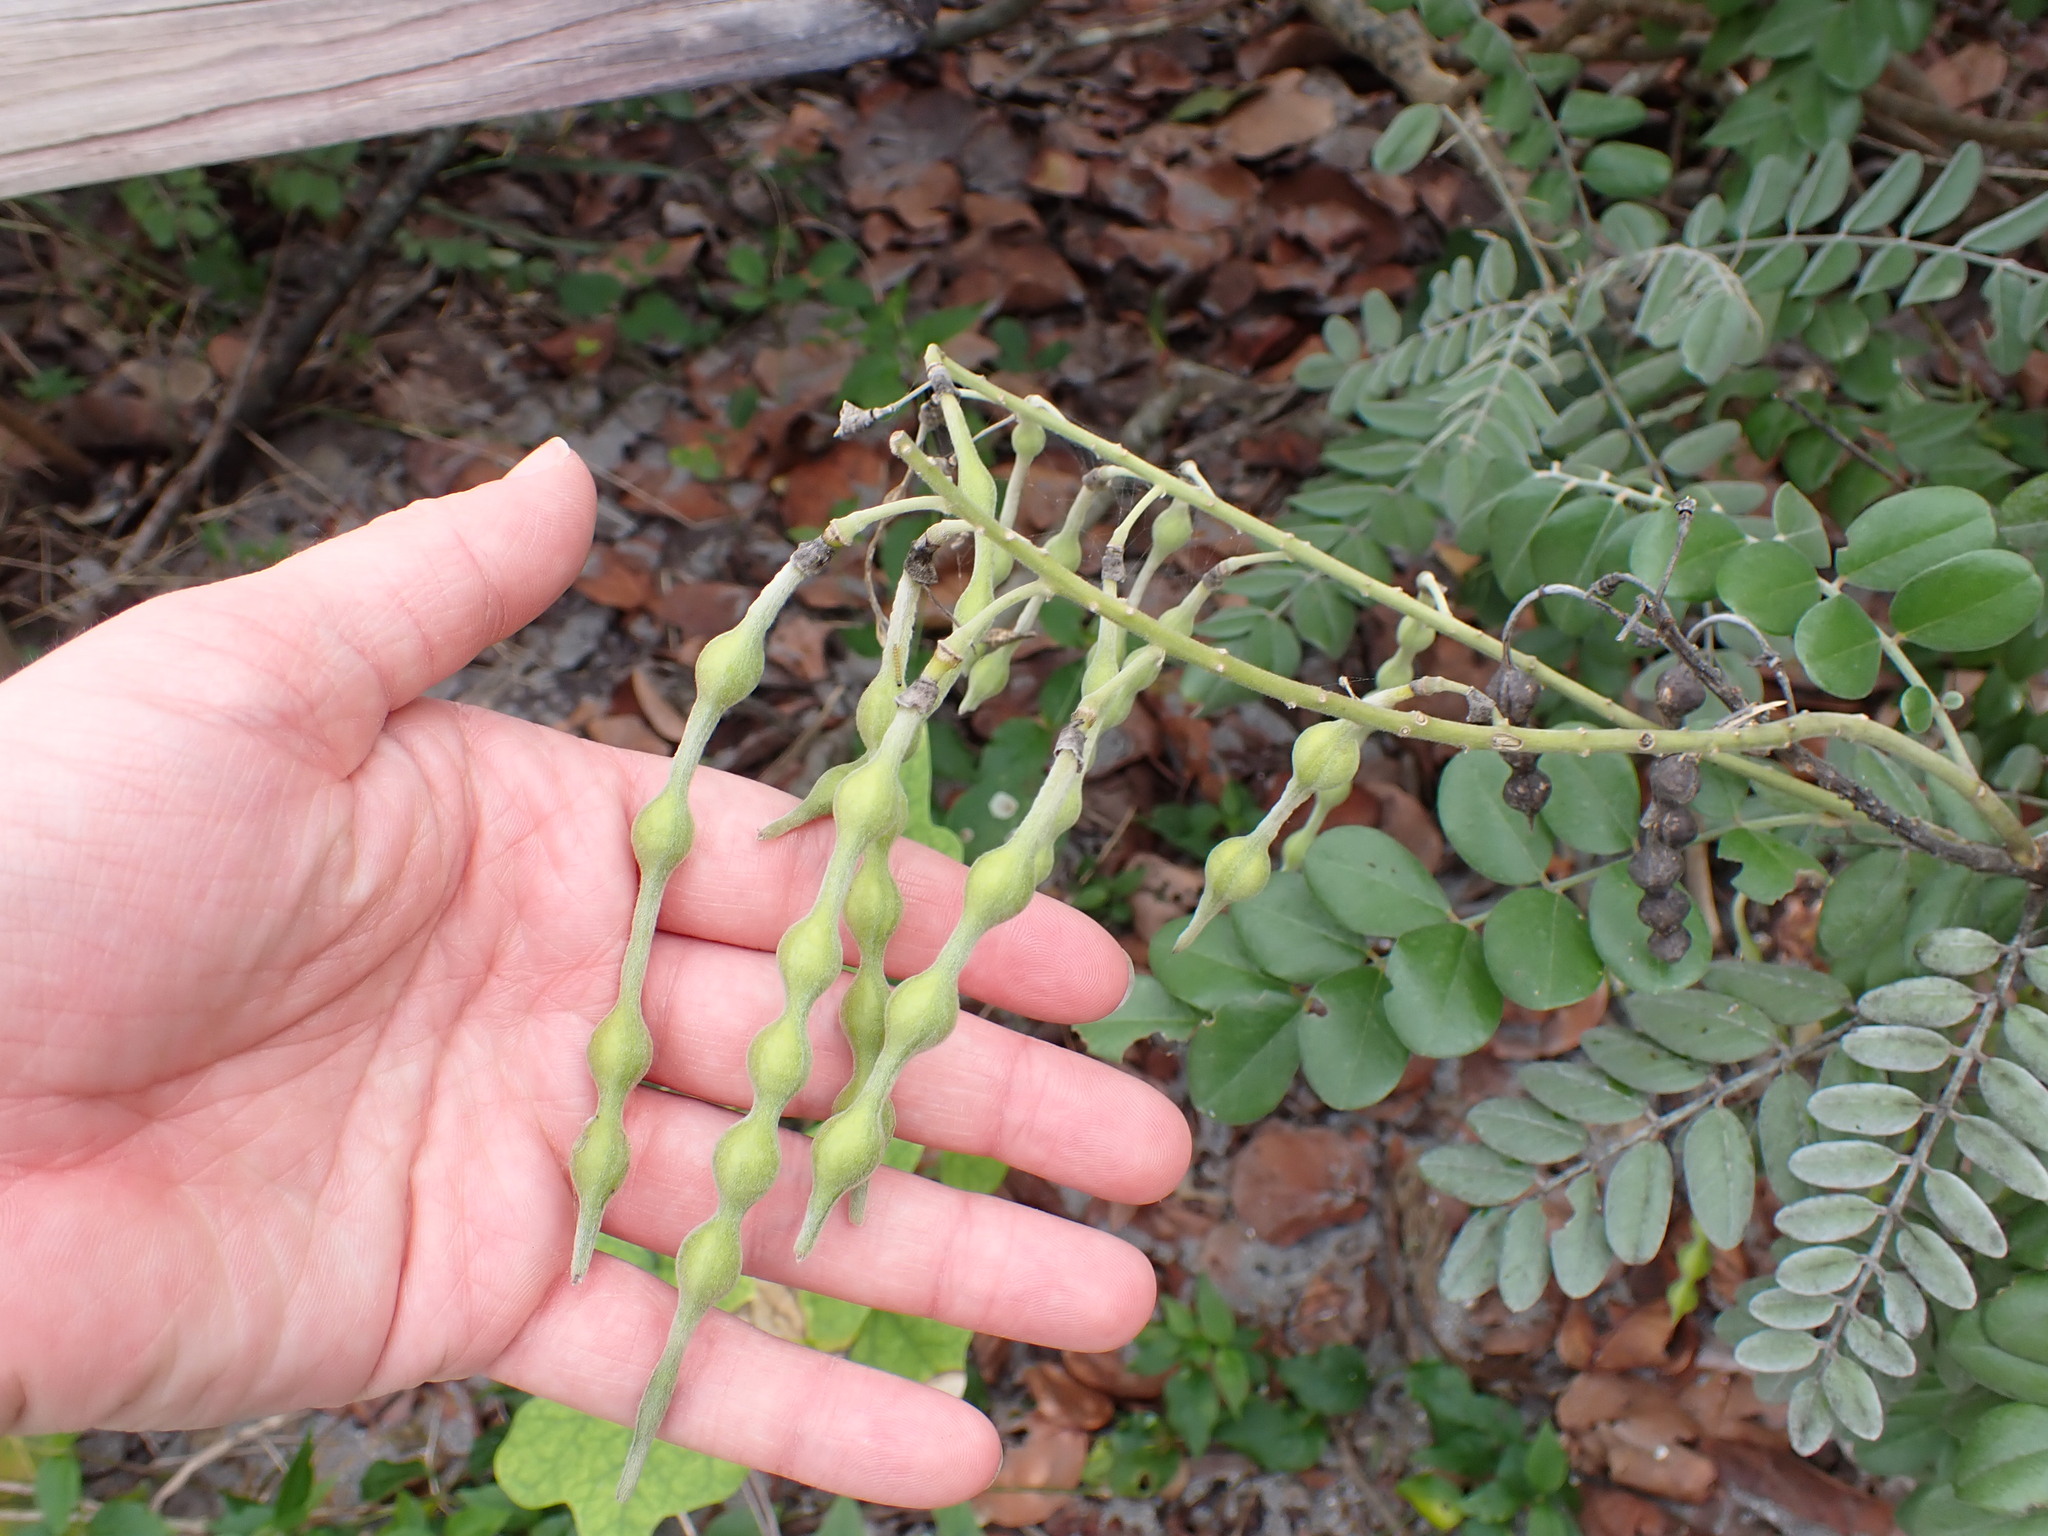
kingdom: Plantae
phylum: Tracheophyta
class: Magnoliopsida
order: Fabales
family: Fabaceae
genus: Sophora
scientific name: Sophora tomentosa
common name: Yellow necklacepod
